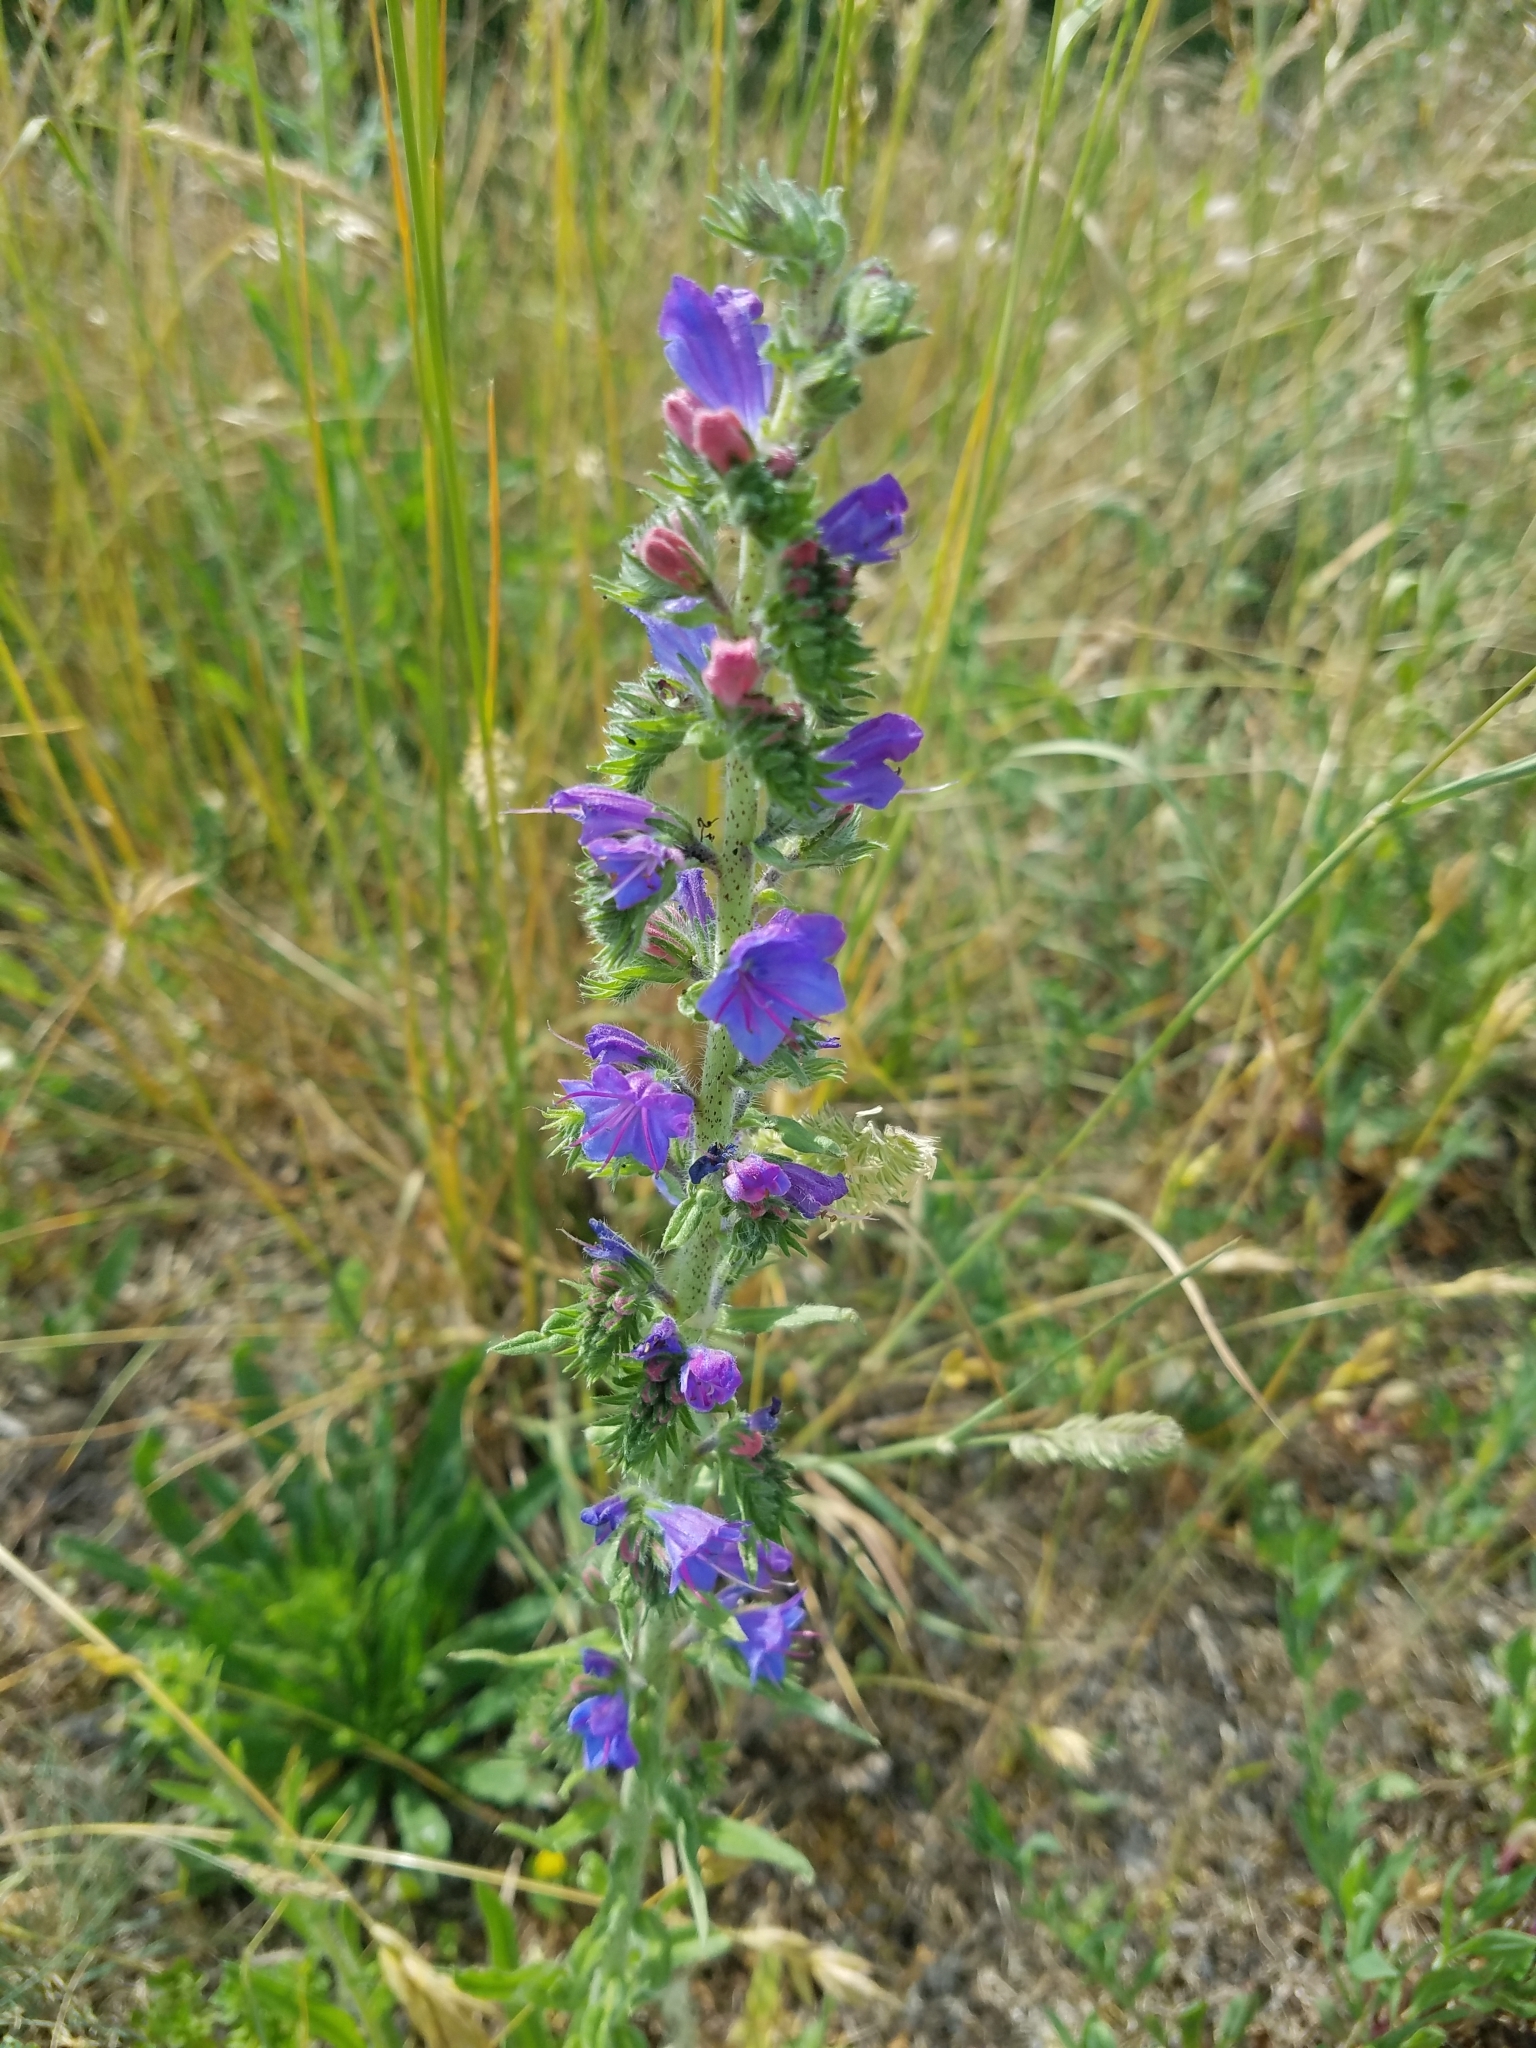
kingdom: Plantae
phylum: Tracheophyta
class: Magnoliopsida
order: Boraginales
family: Boraginaceae
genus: Echium
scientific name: Echium vulgare
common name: Common viper's bugloss
